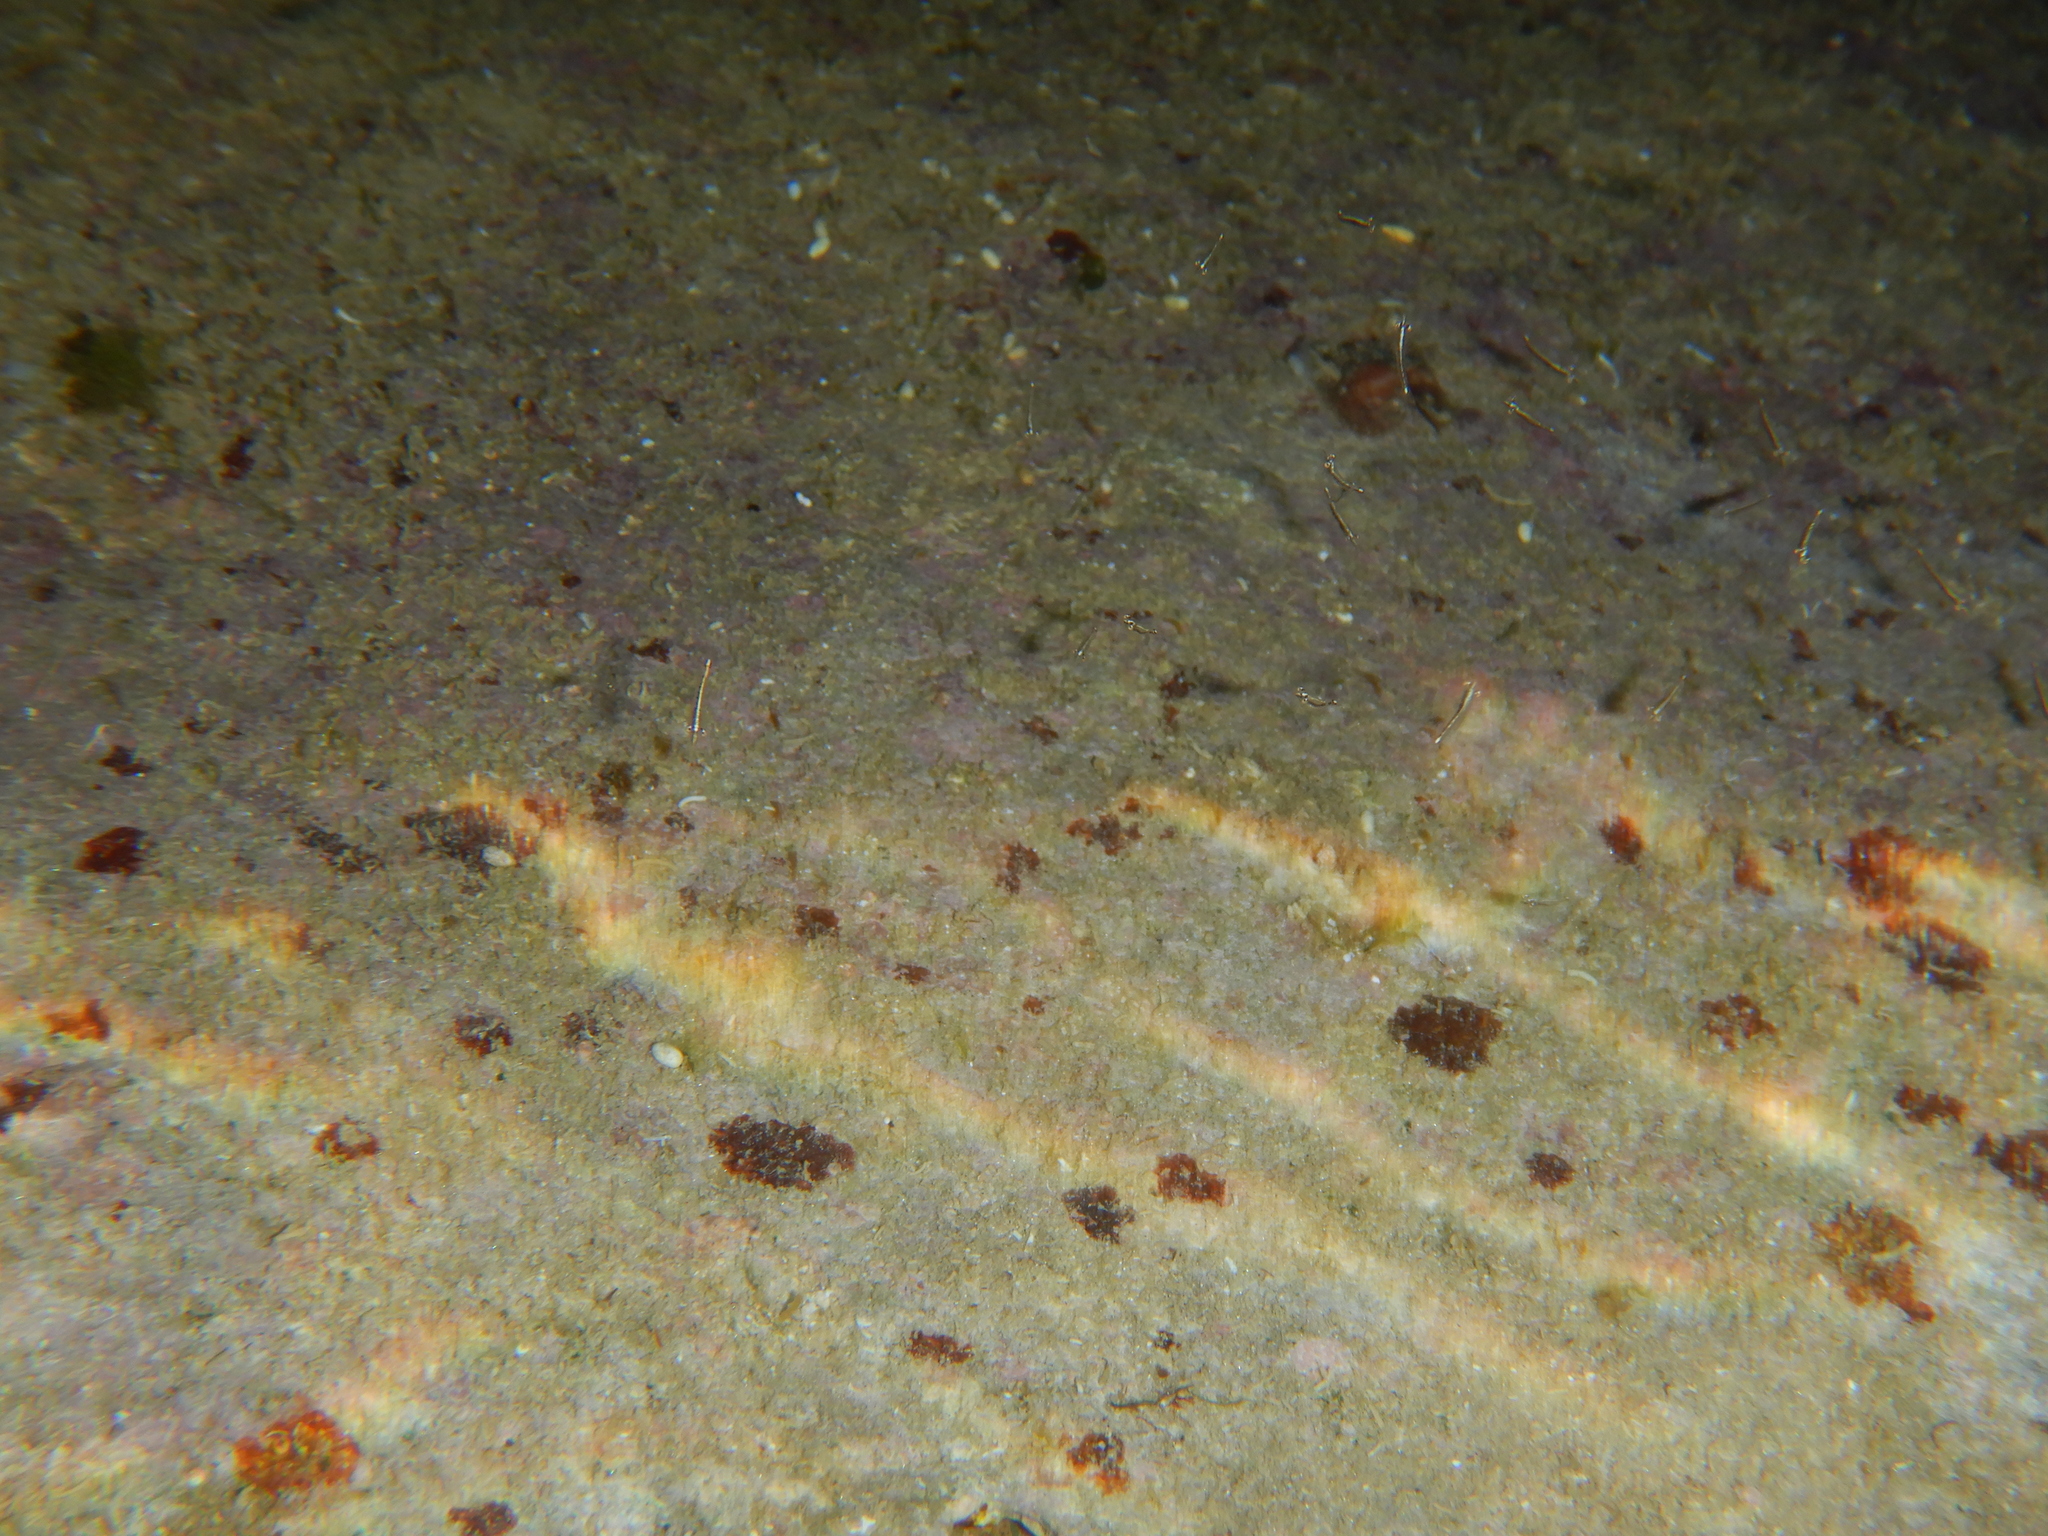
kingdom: Animalia
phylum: Arthropoda
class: Malacostraca
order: Mysida
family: Mysidae
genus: Leptomysis
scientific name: Leptomysis buergii
